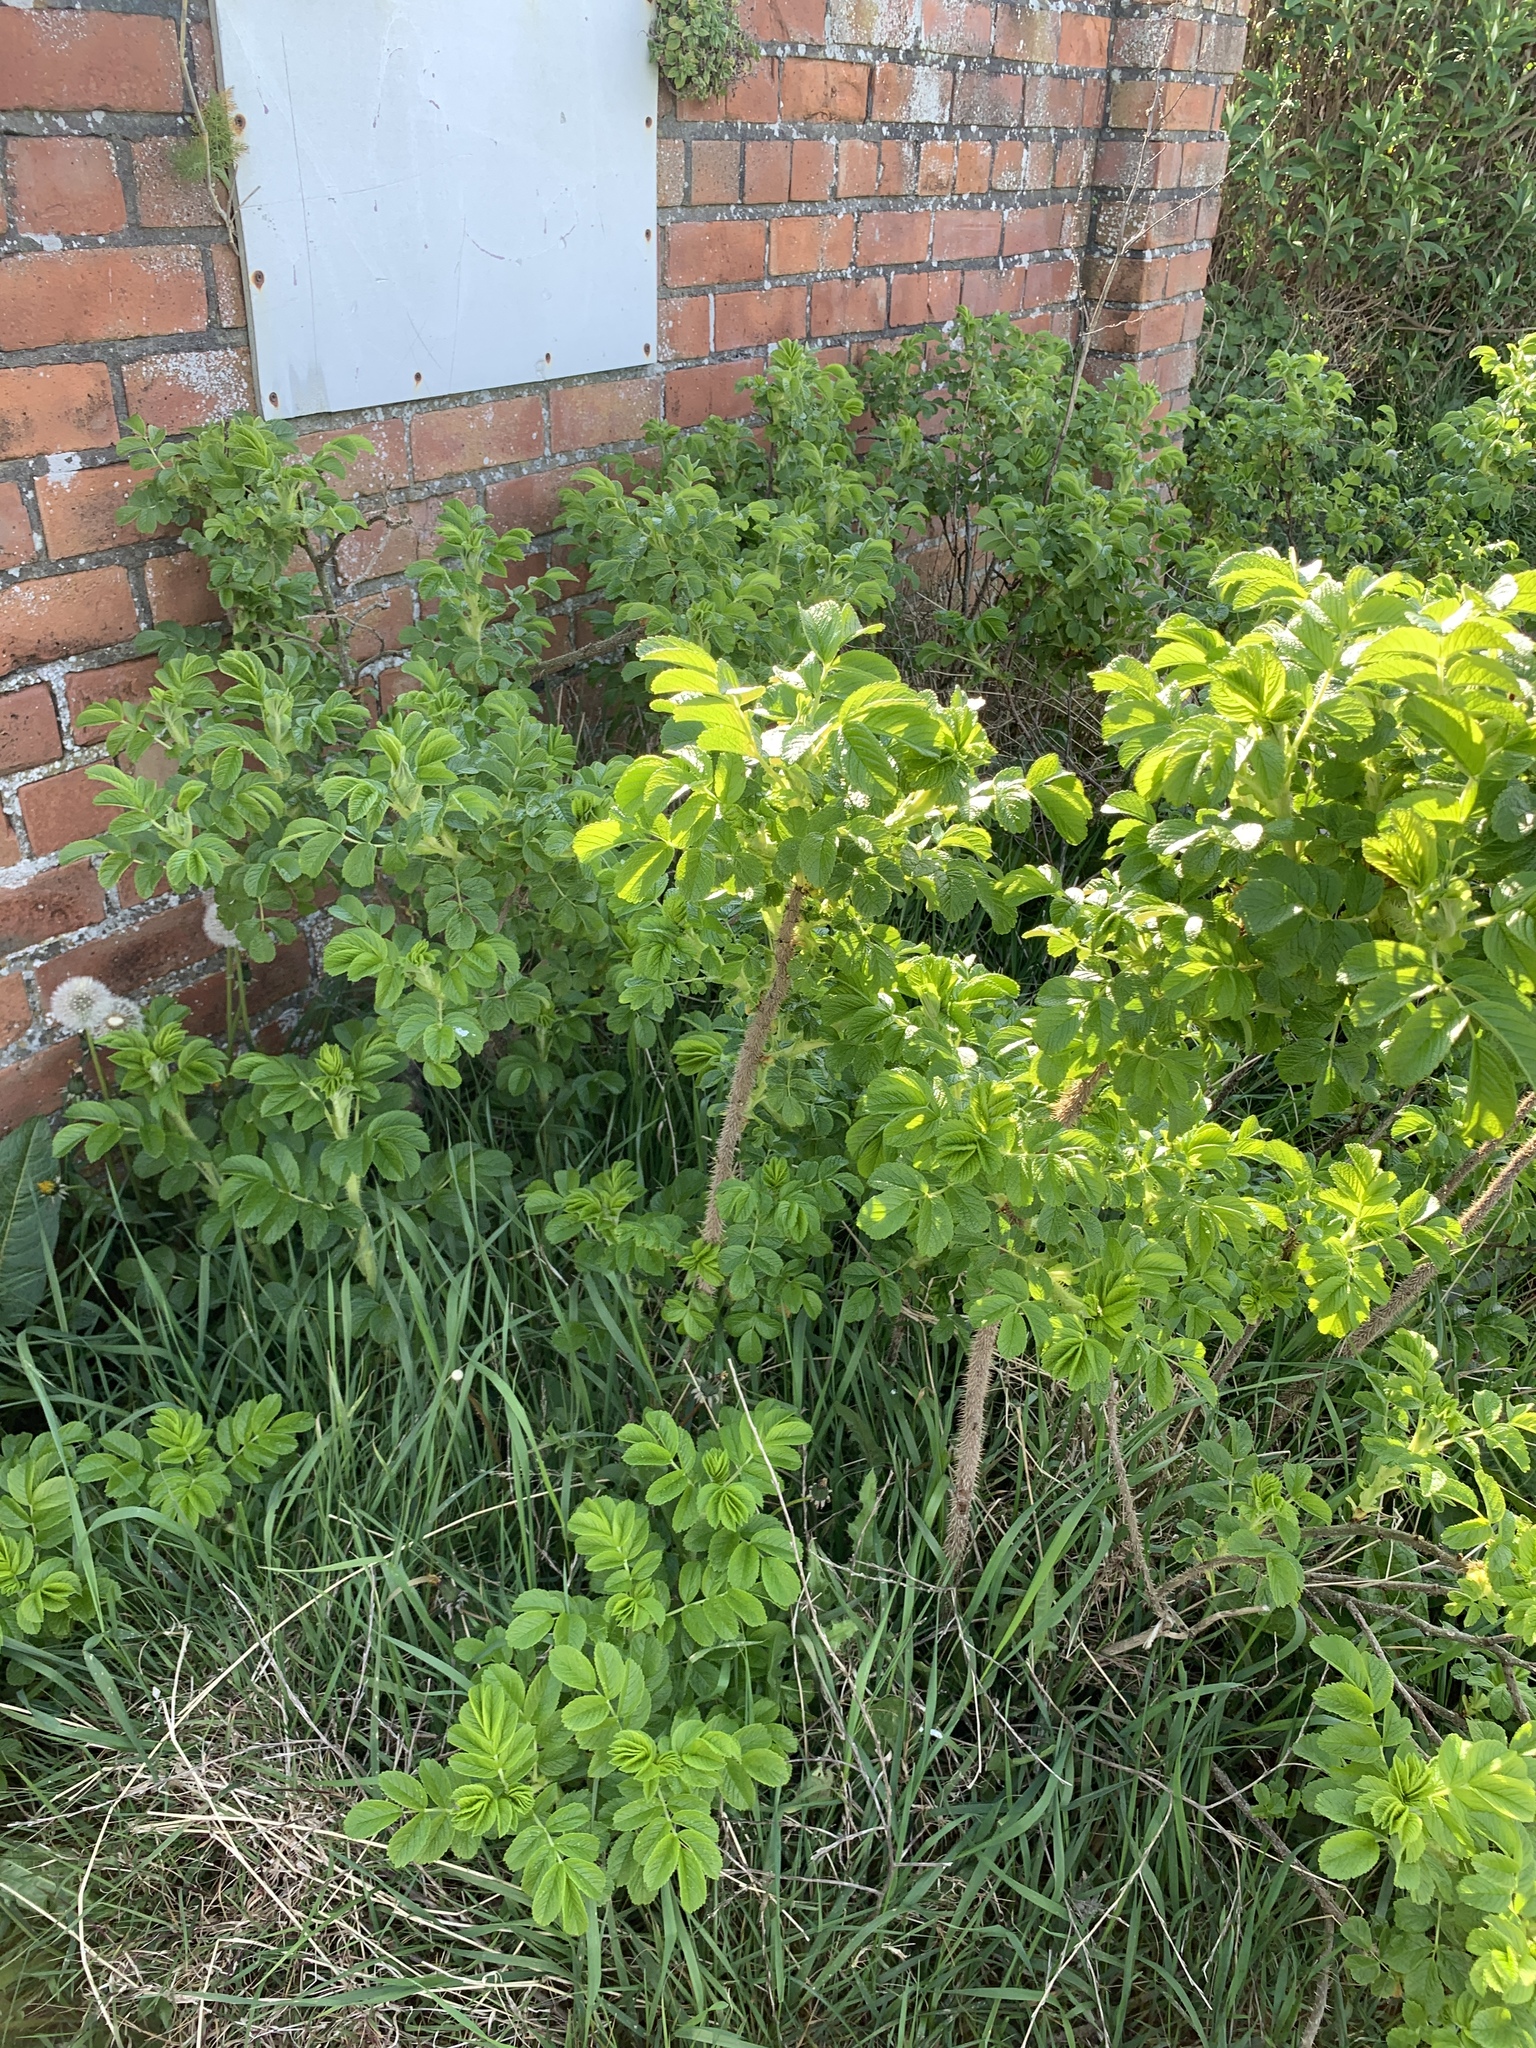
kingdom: Plantae
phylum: Tracheophyta
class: Magnoliopsida
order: Rosales
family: Rosaceae
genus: Rosa
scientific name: Rosa rugosa
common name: Japanese rose
